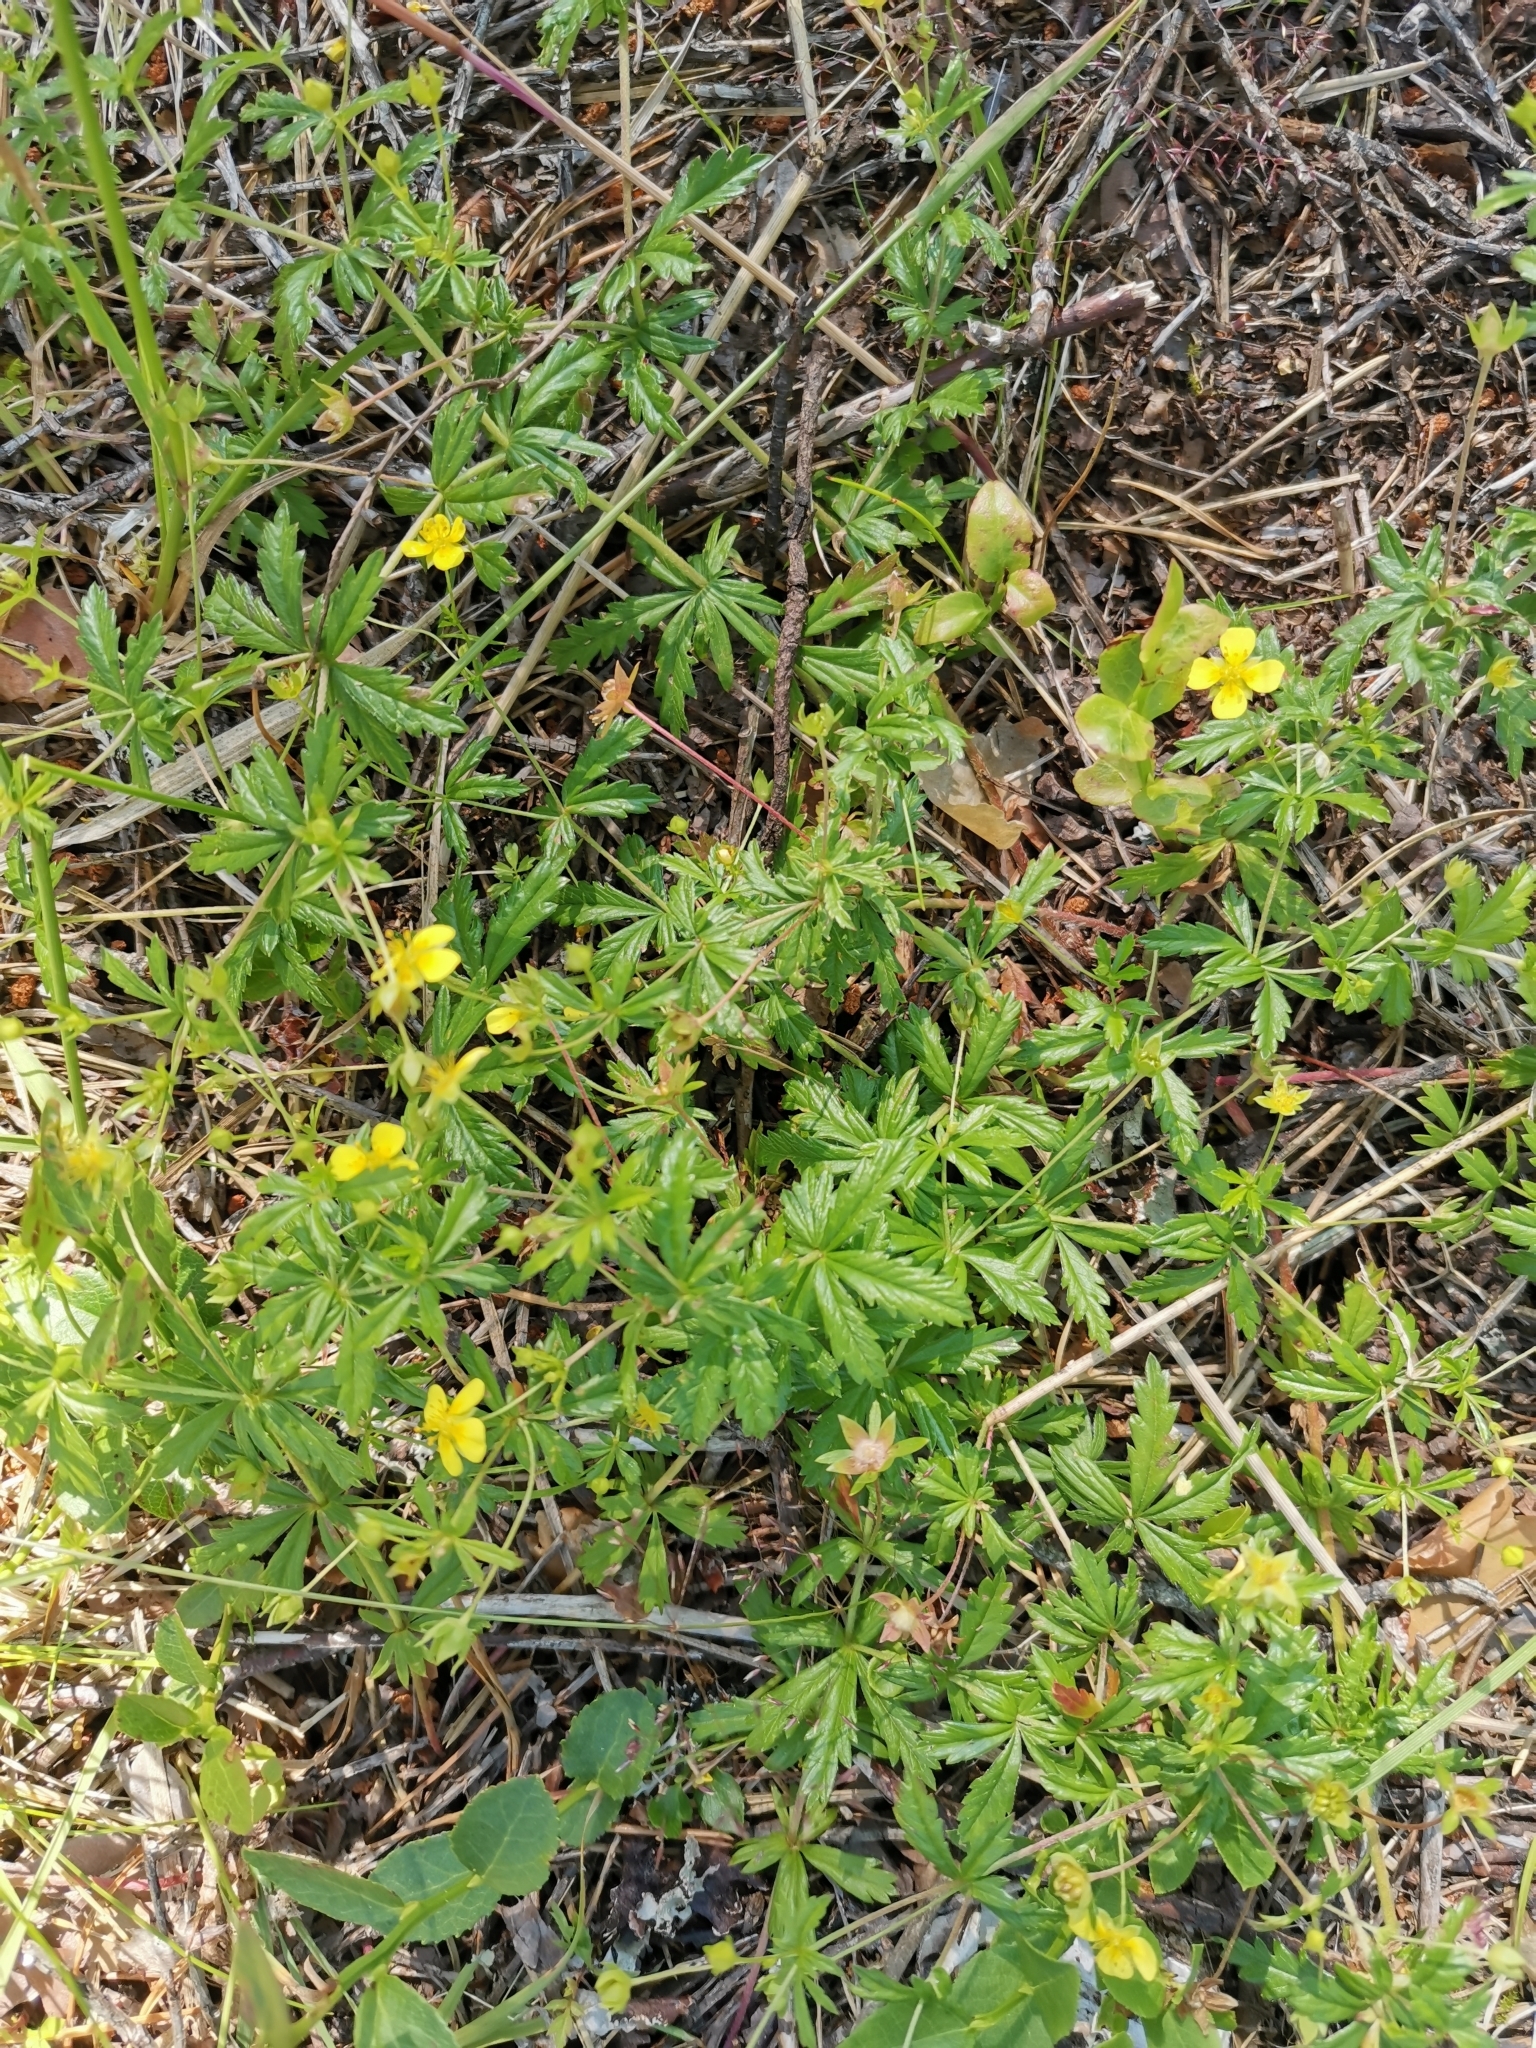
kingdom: Plantae
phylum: Tracheophyta
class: Magnoliopsida
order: Rosales
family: Rosaceae
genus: Potentilla
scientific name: Potentilla erecta
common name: Tormentil
